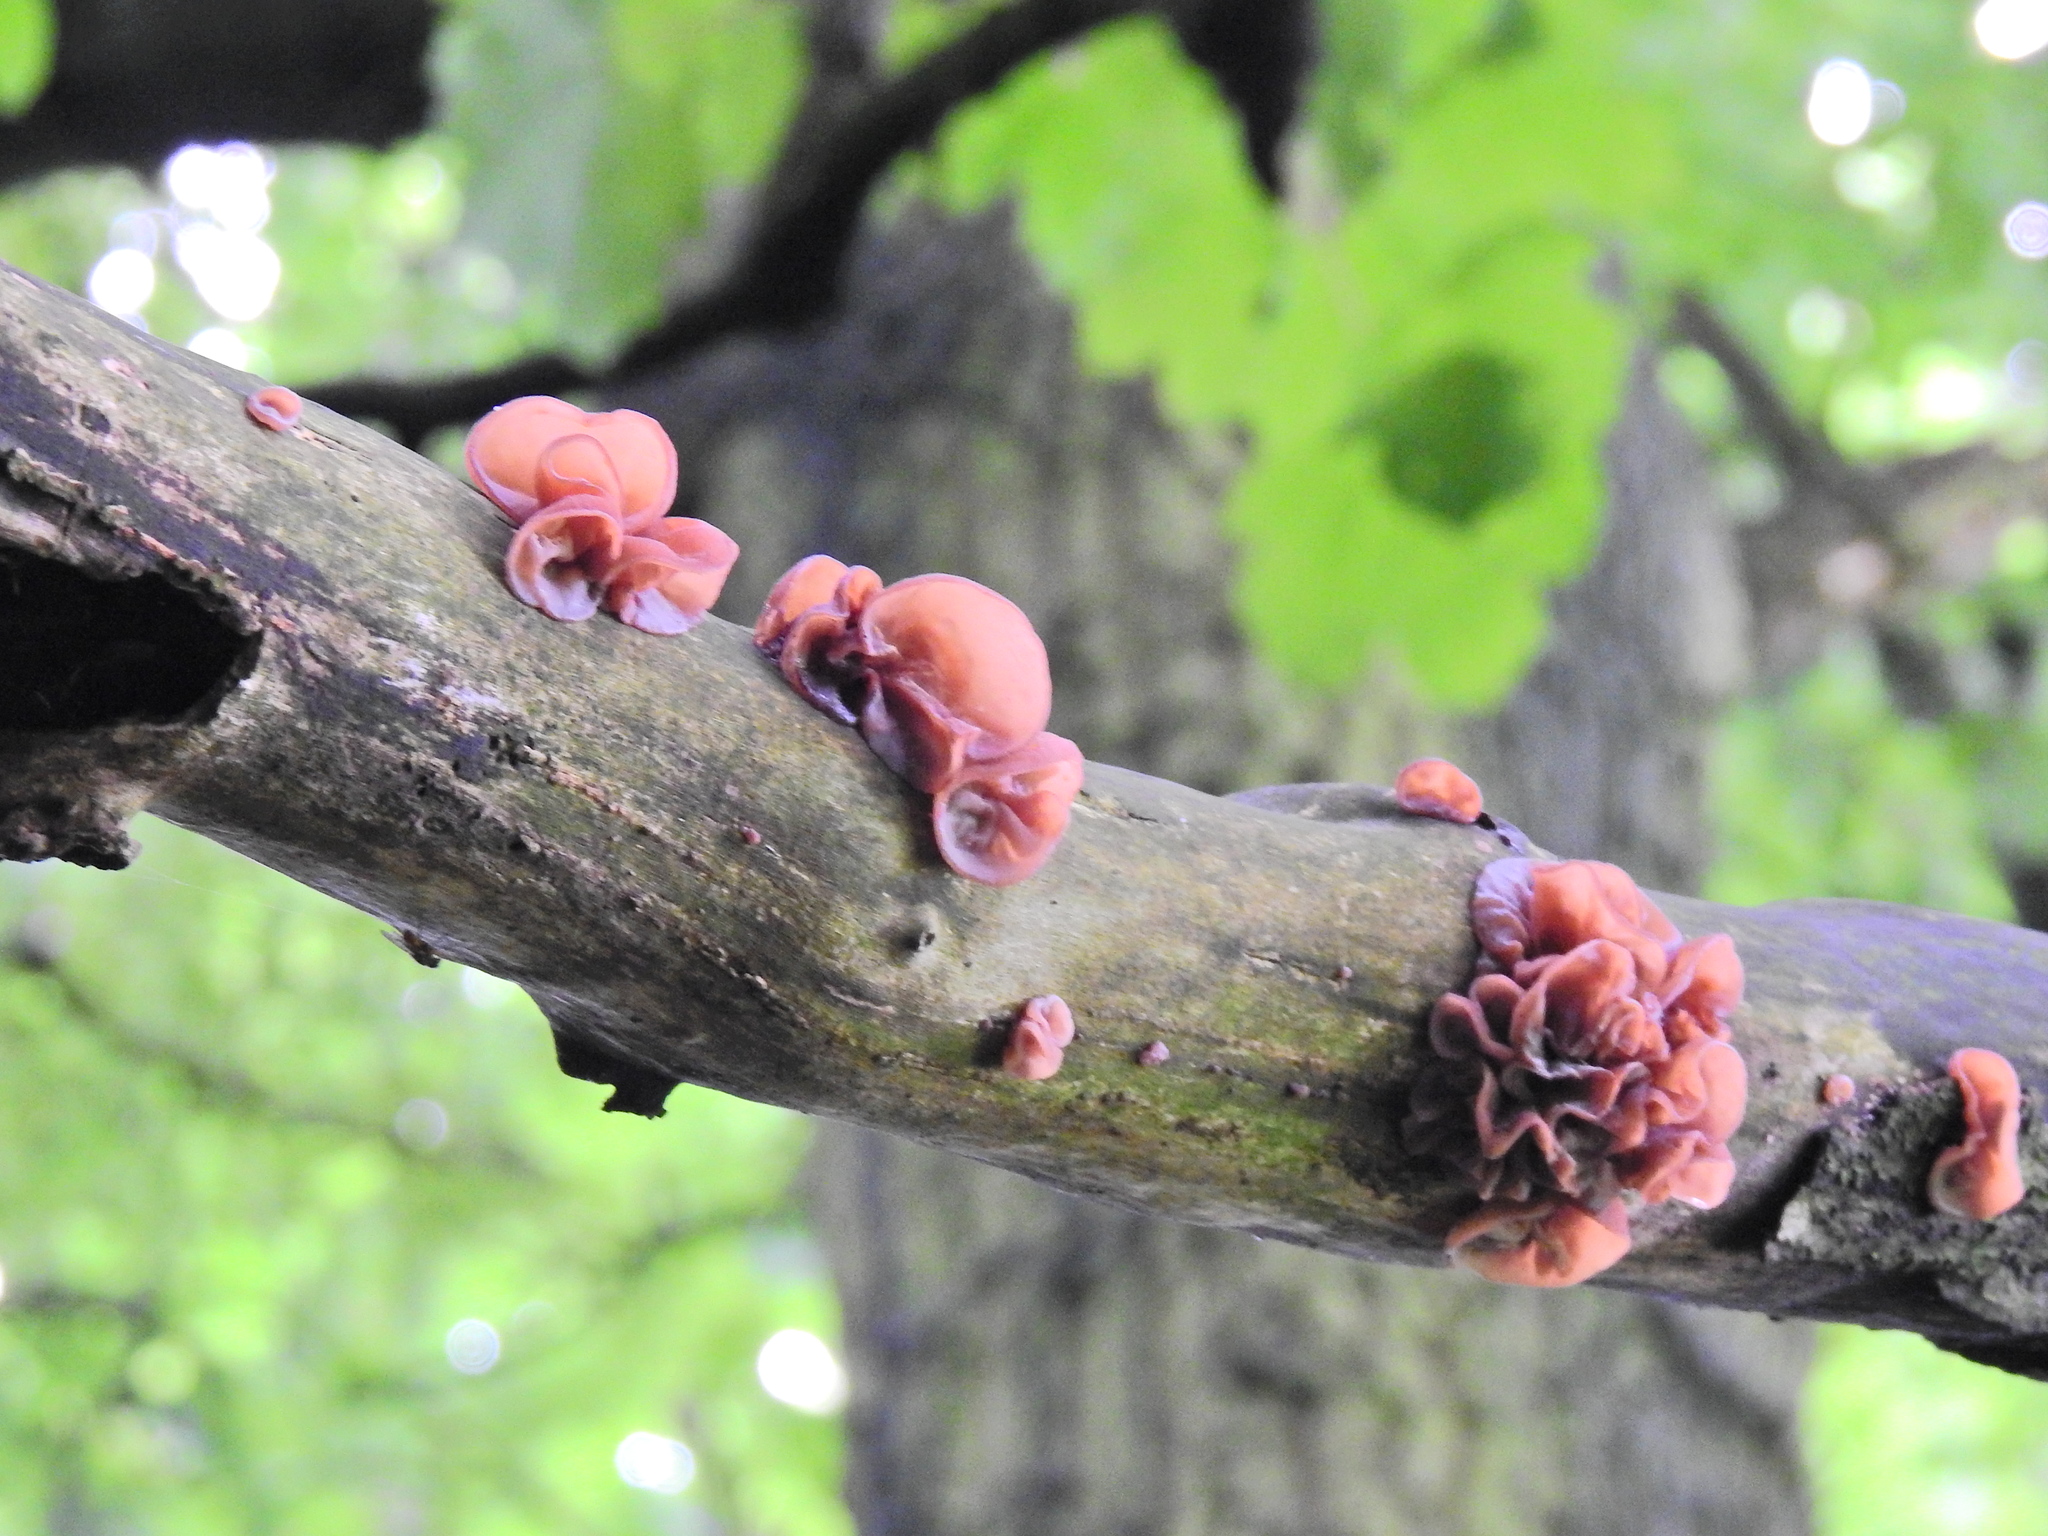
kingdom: Fungi
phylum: Basidiomycota
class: Agaricomycetes
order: Auriculariales
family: Auriculariaceae
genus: Auricularia
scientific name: Auricularia auricula-judae
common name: Jelly ear
